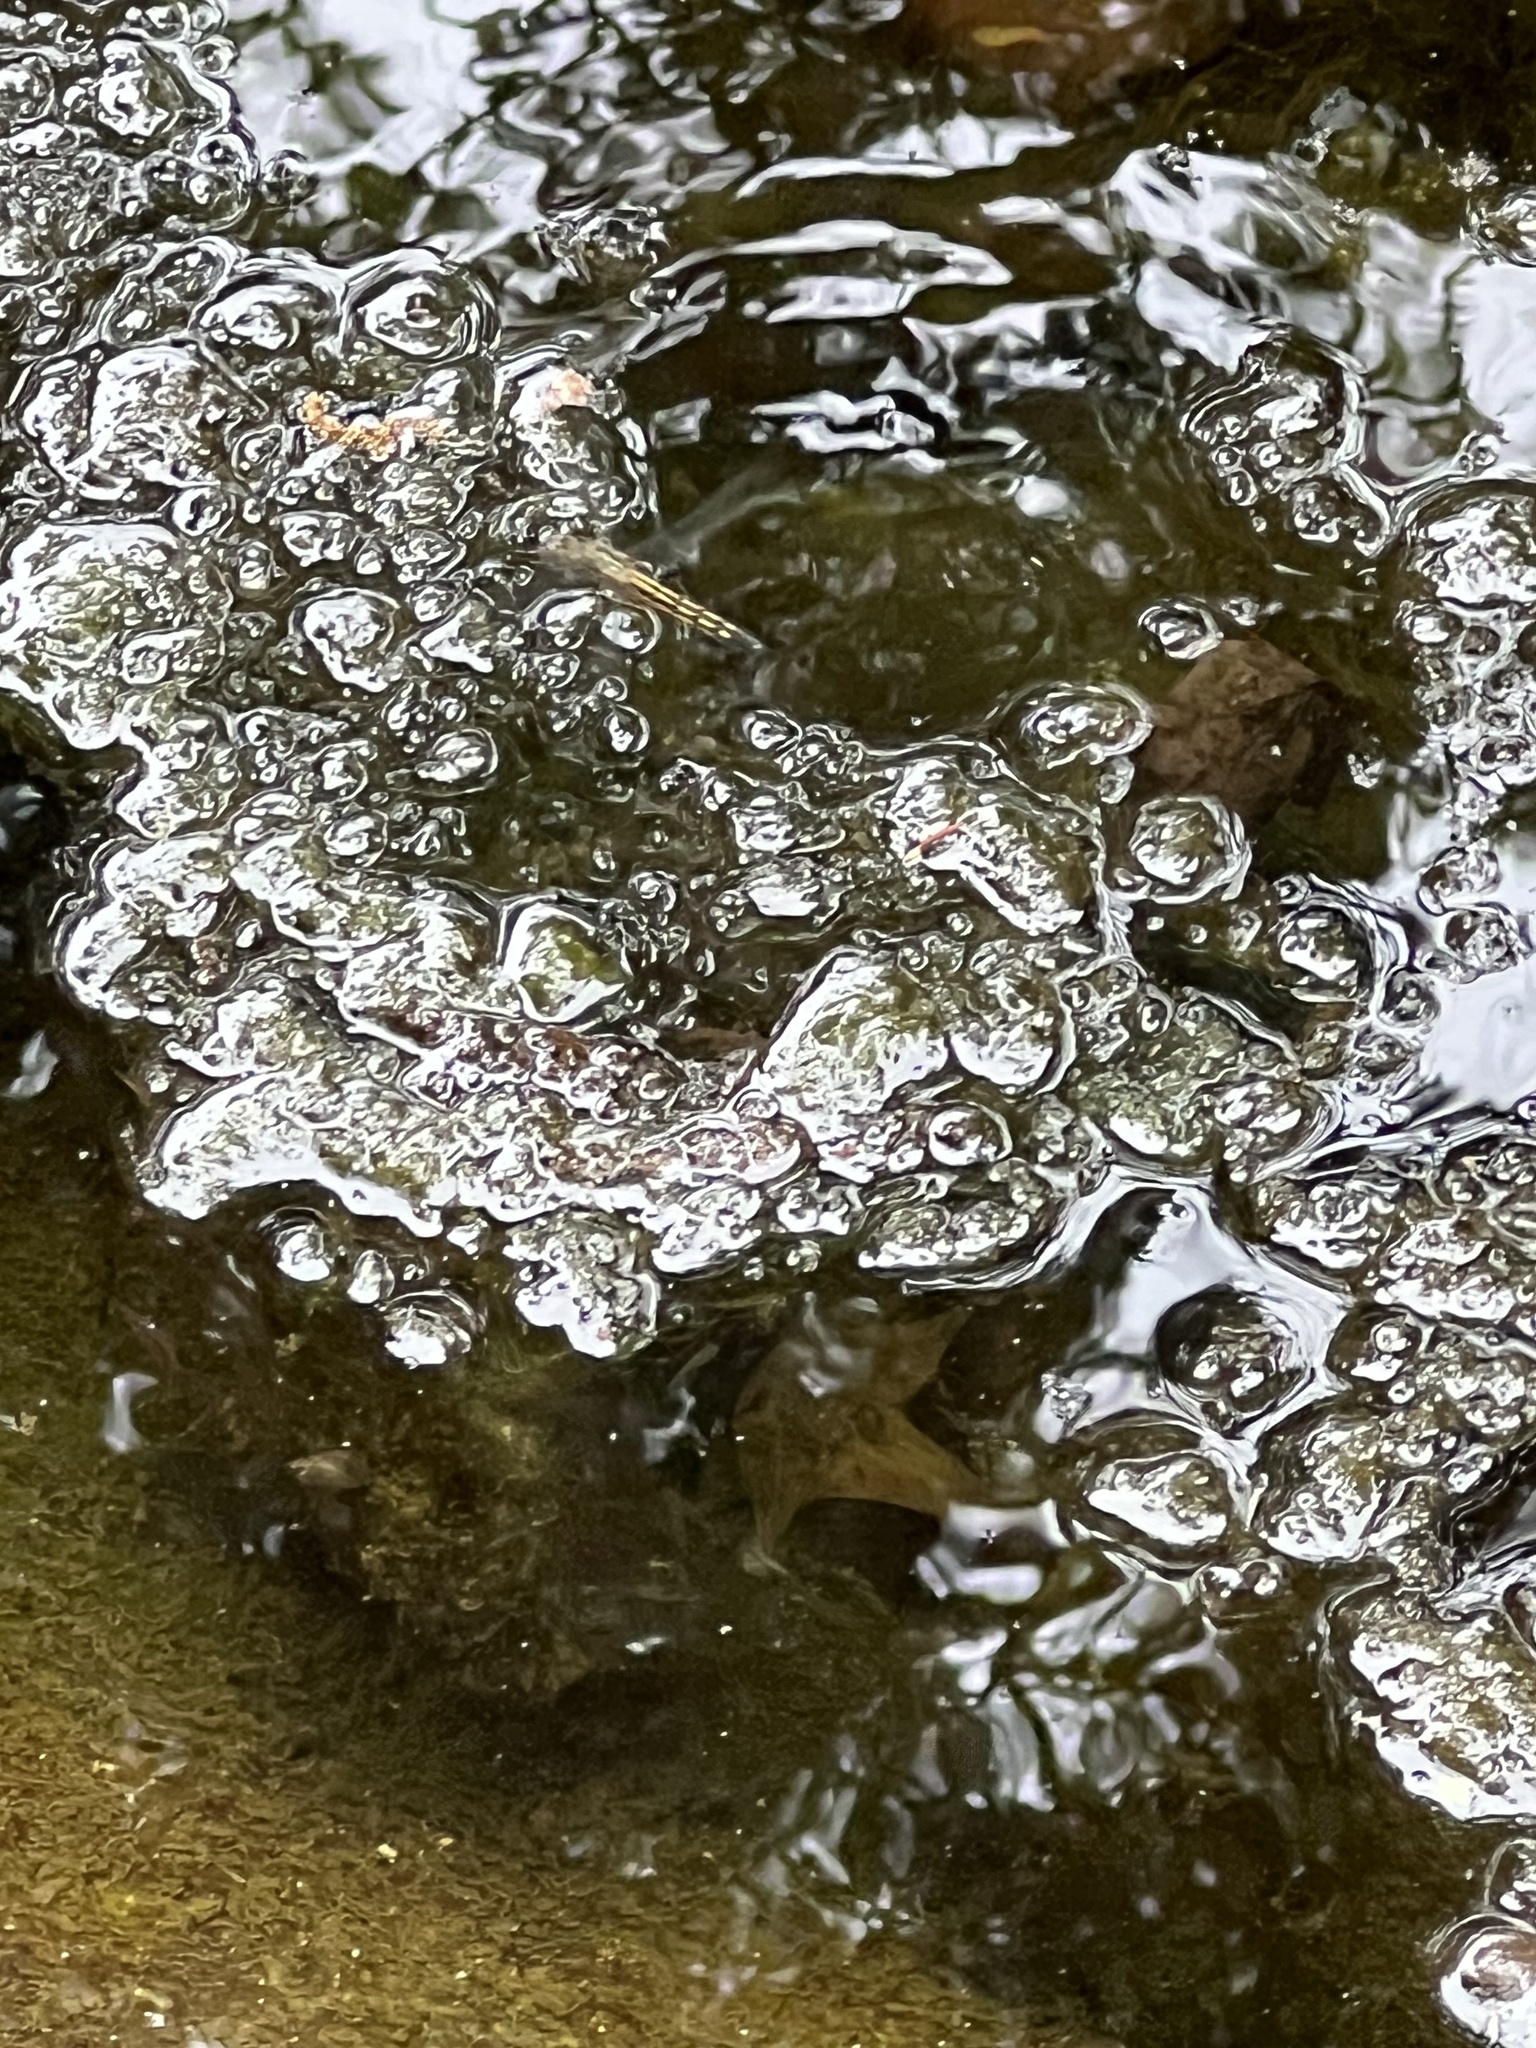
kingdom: Animalia
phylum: Arthropoda
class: Insecta
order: Odonata
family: Libellulidae
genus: Pachydiplax
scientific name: Pachydiplax longipennis
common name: Blue dasher
